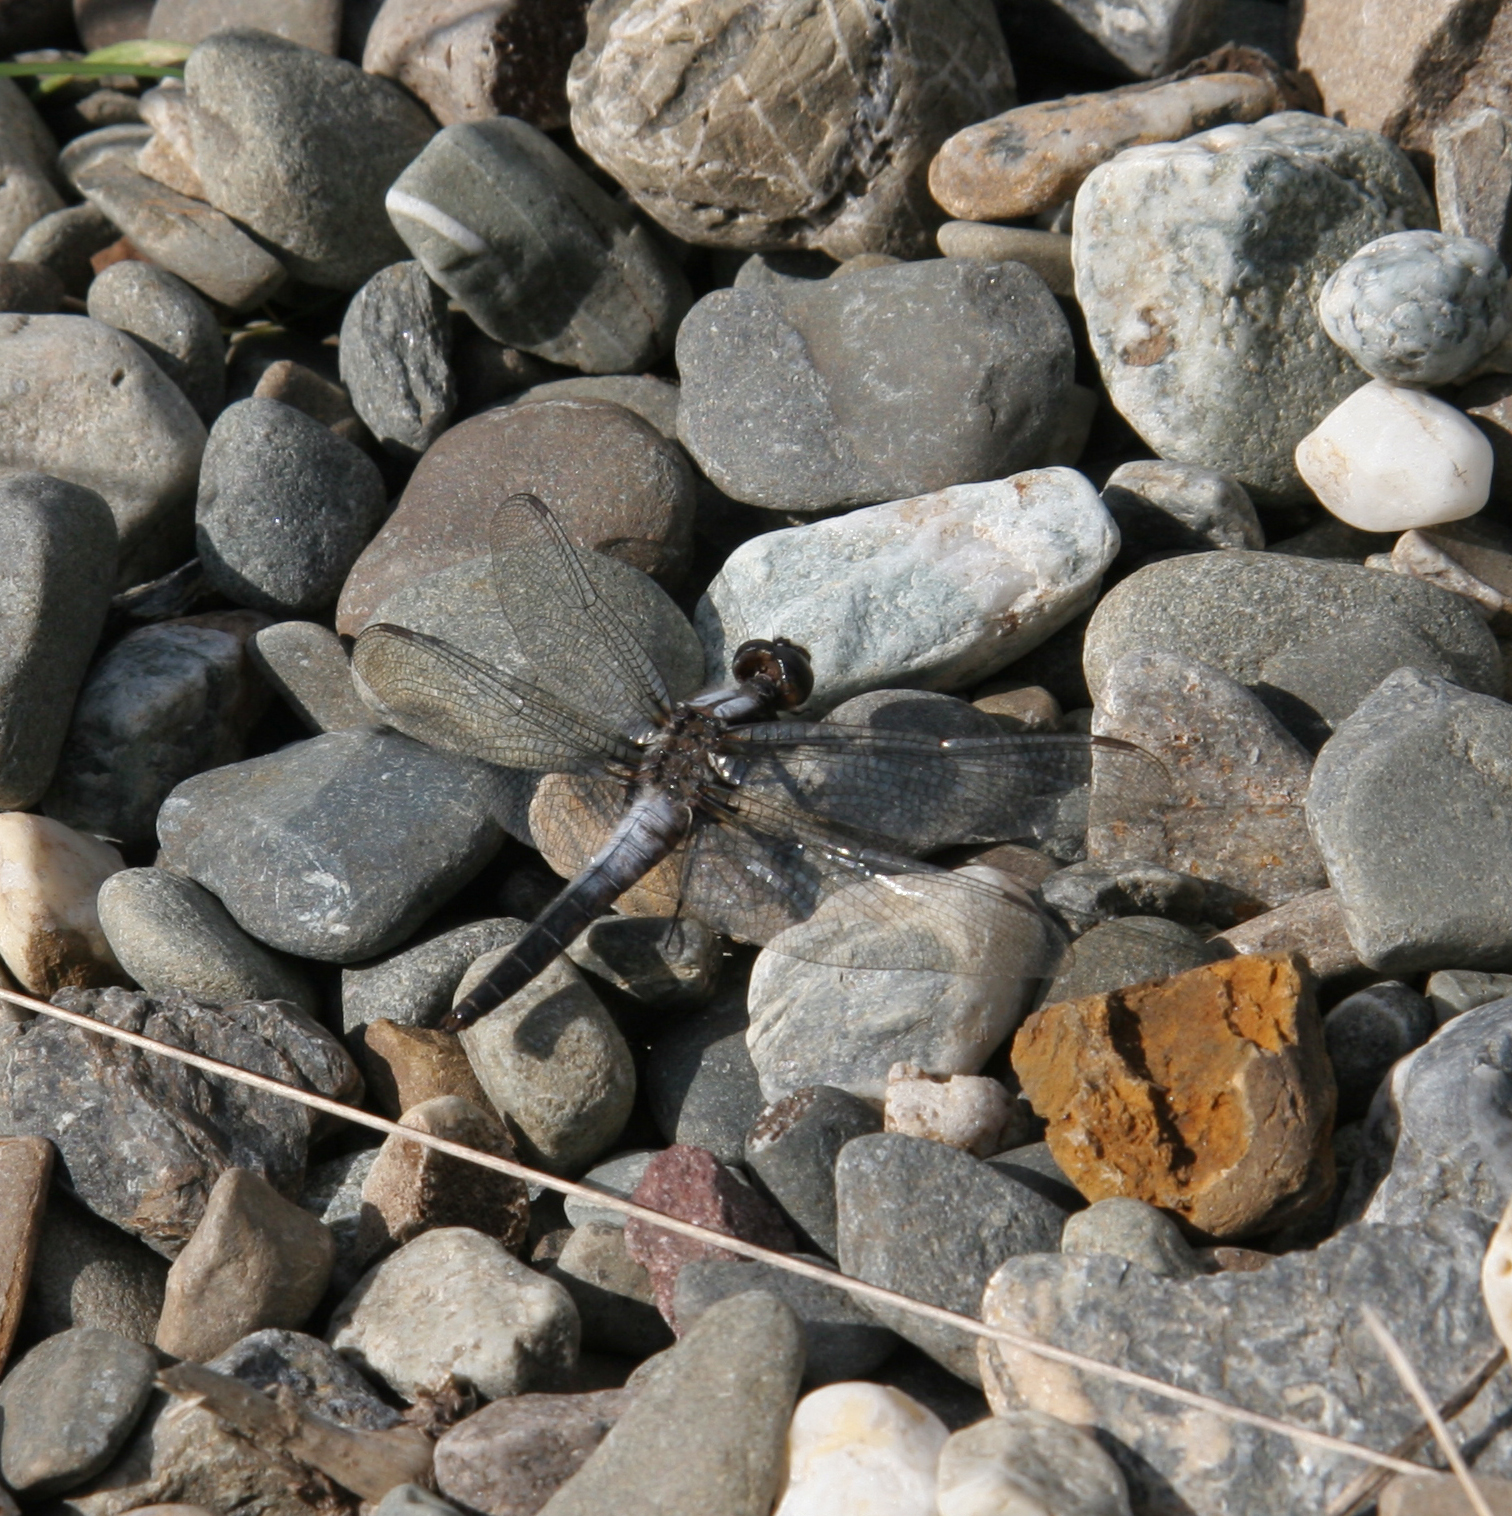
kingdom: Animalia
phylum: Arthropoda
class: Insecta
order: Odonata
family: Libellulidae
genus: Ladona
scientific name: Ladona julia
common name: Chalk-fronted corporal
